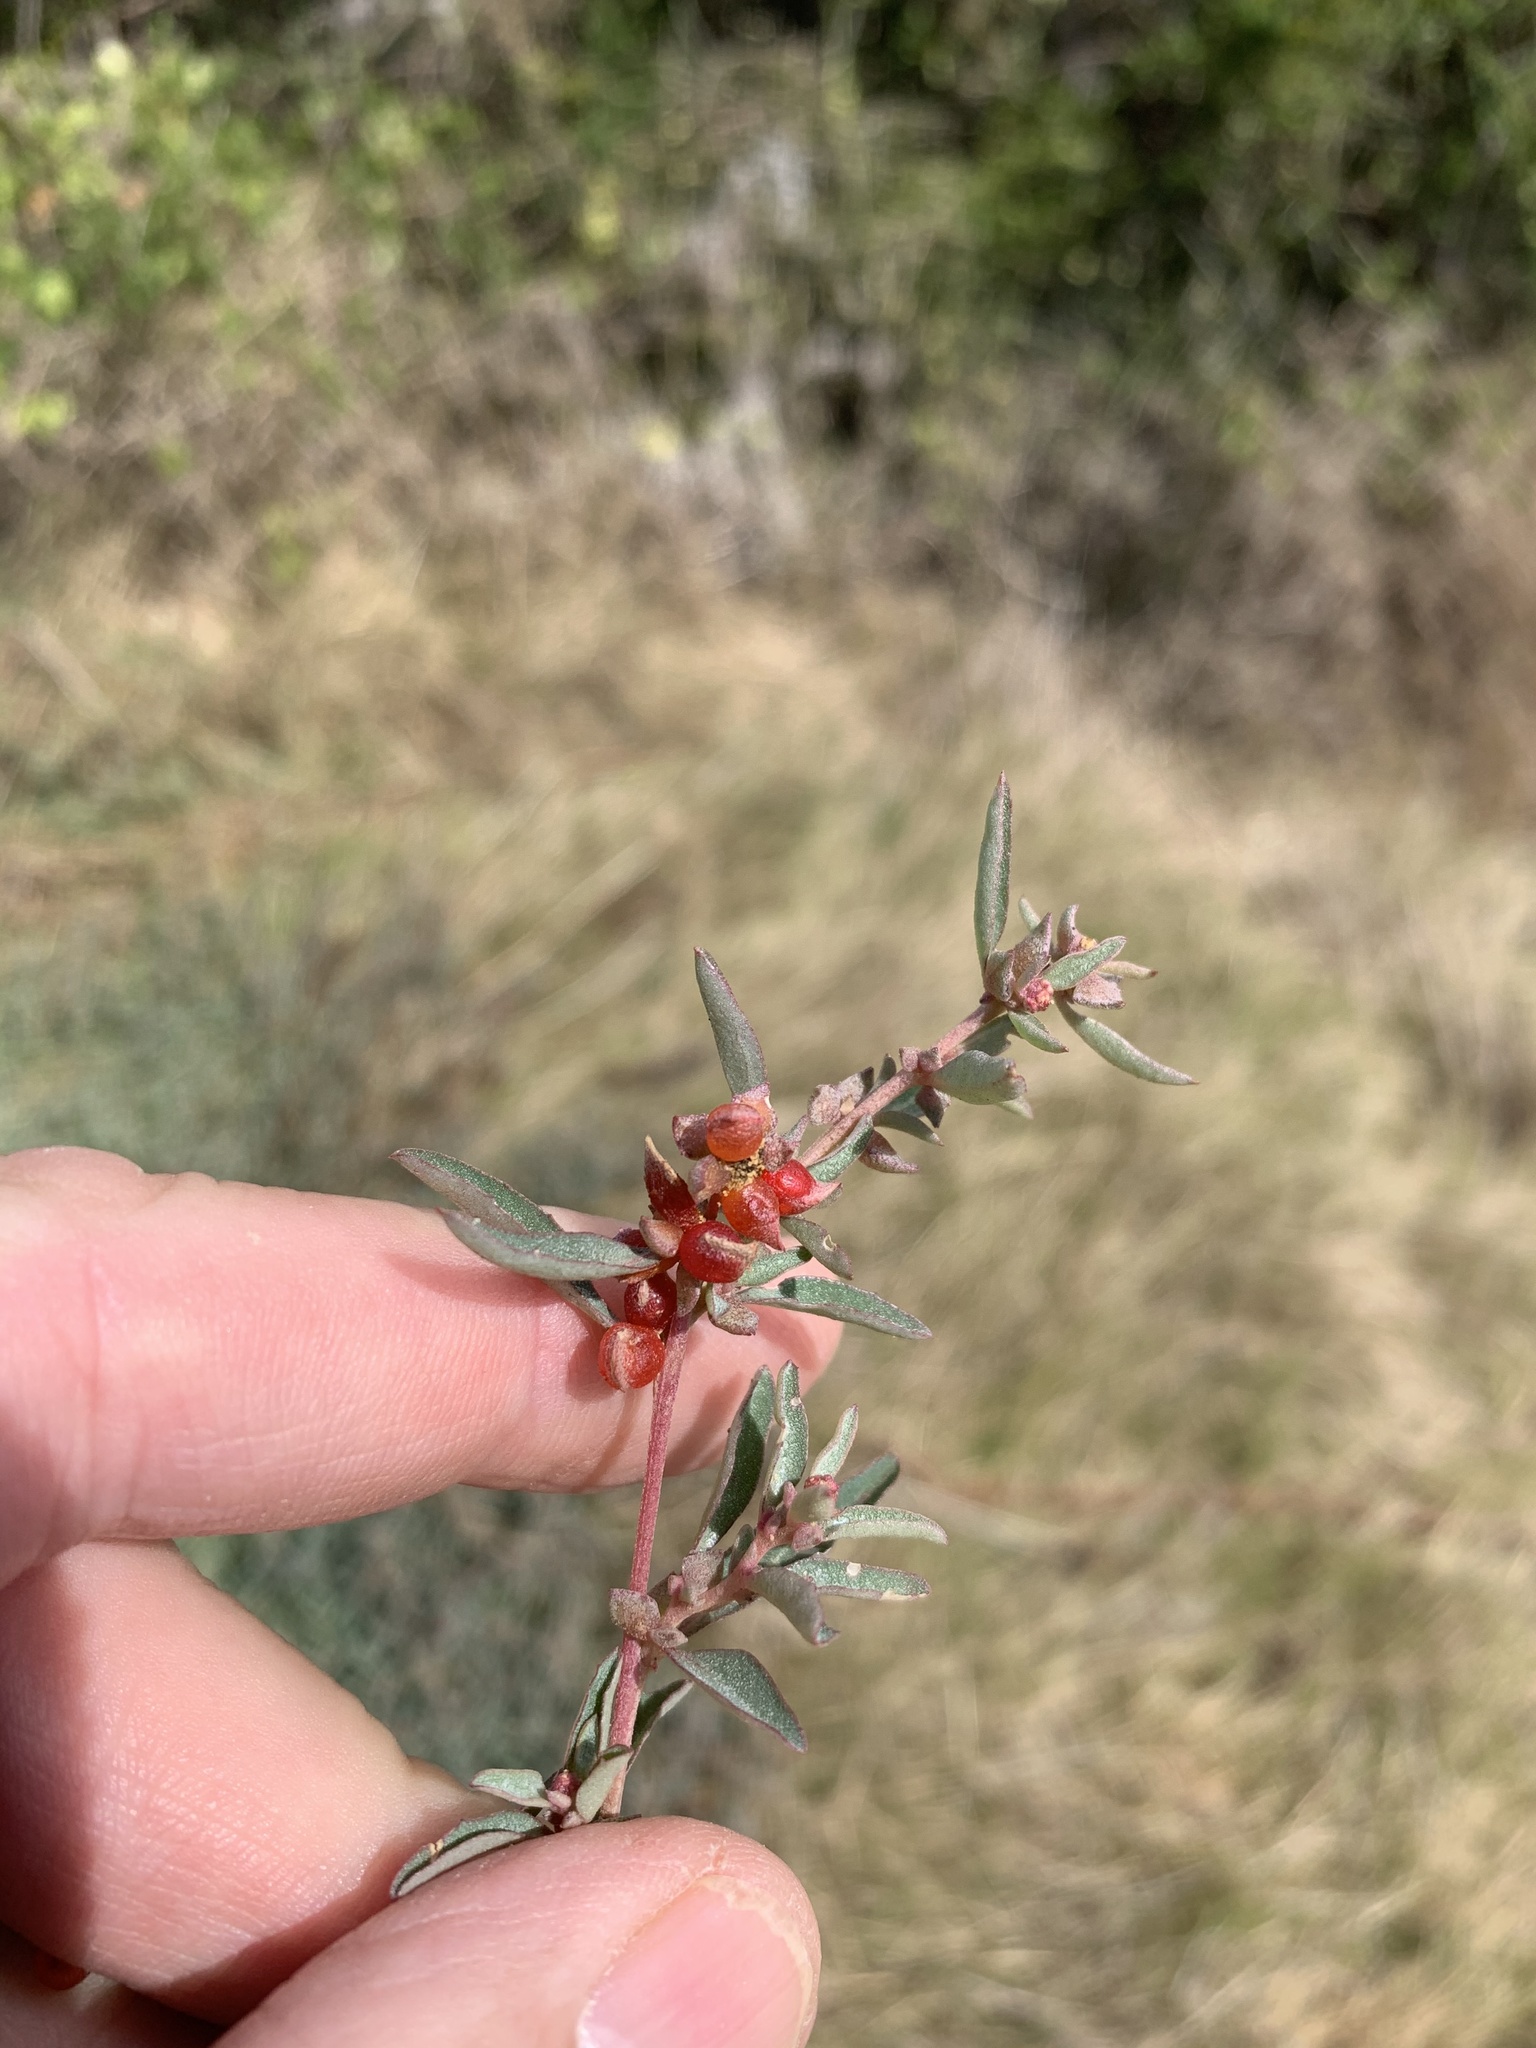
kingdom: Plantae
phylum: Tracheophyta
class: Magnoliopsida
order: Caryophyllales
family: Amaranthaceae
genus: Atriplex
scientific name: Atriplex semibaccata
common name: Australian saltbush
